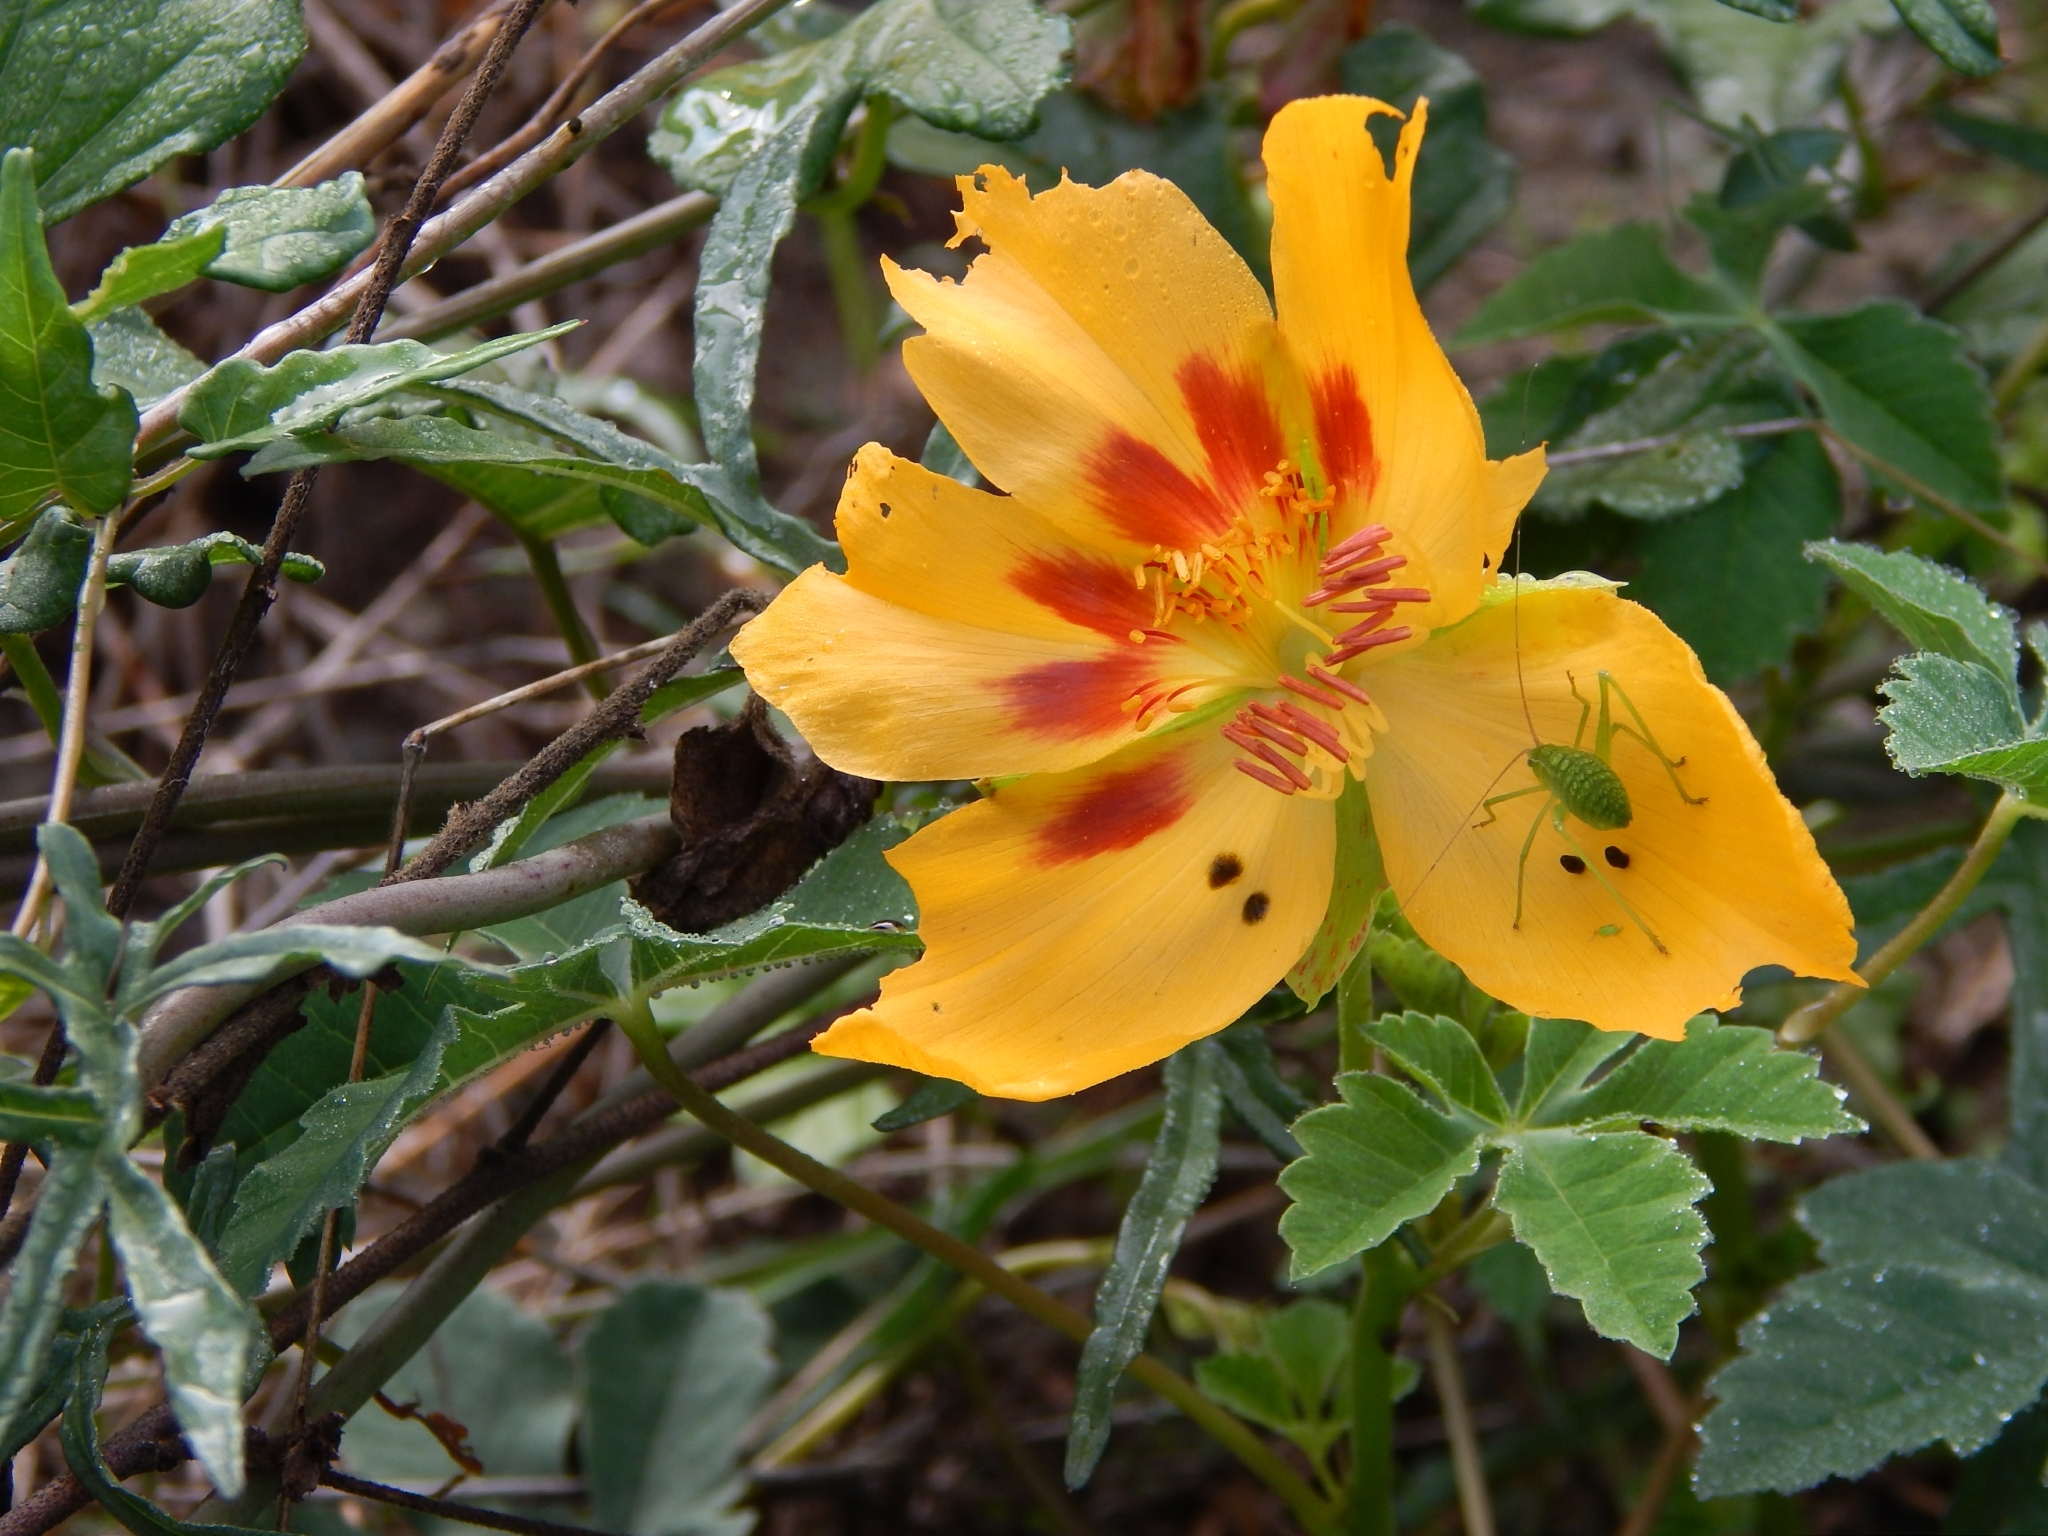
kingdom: Plantae
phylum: Tracheophyta
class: Magnoliopsida
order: Malvales
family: Cochlospermaceae
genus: Cochlospermum
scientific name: Cochlospermum wrightii
